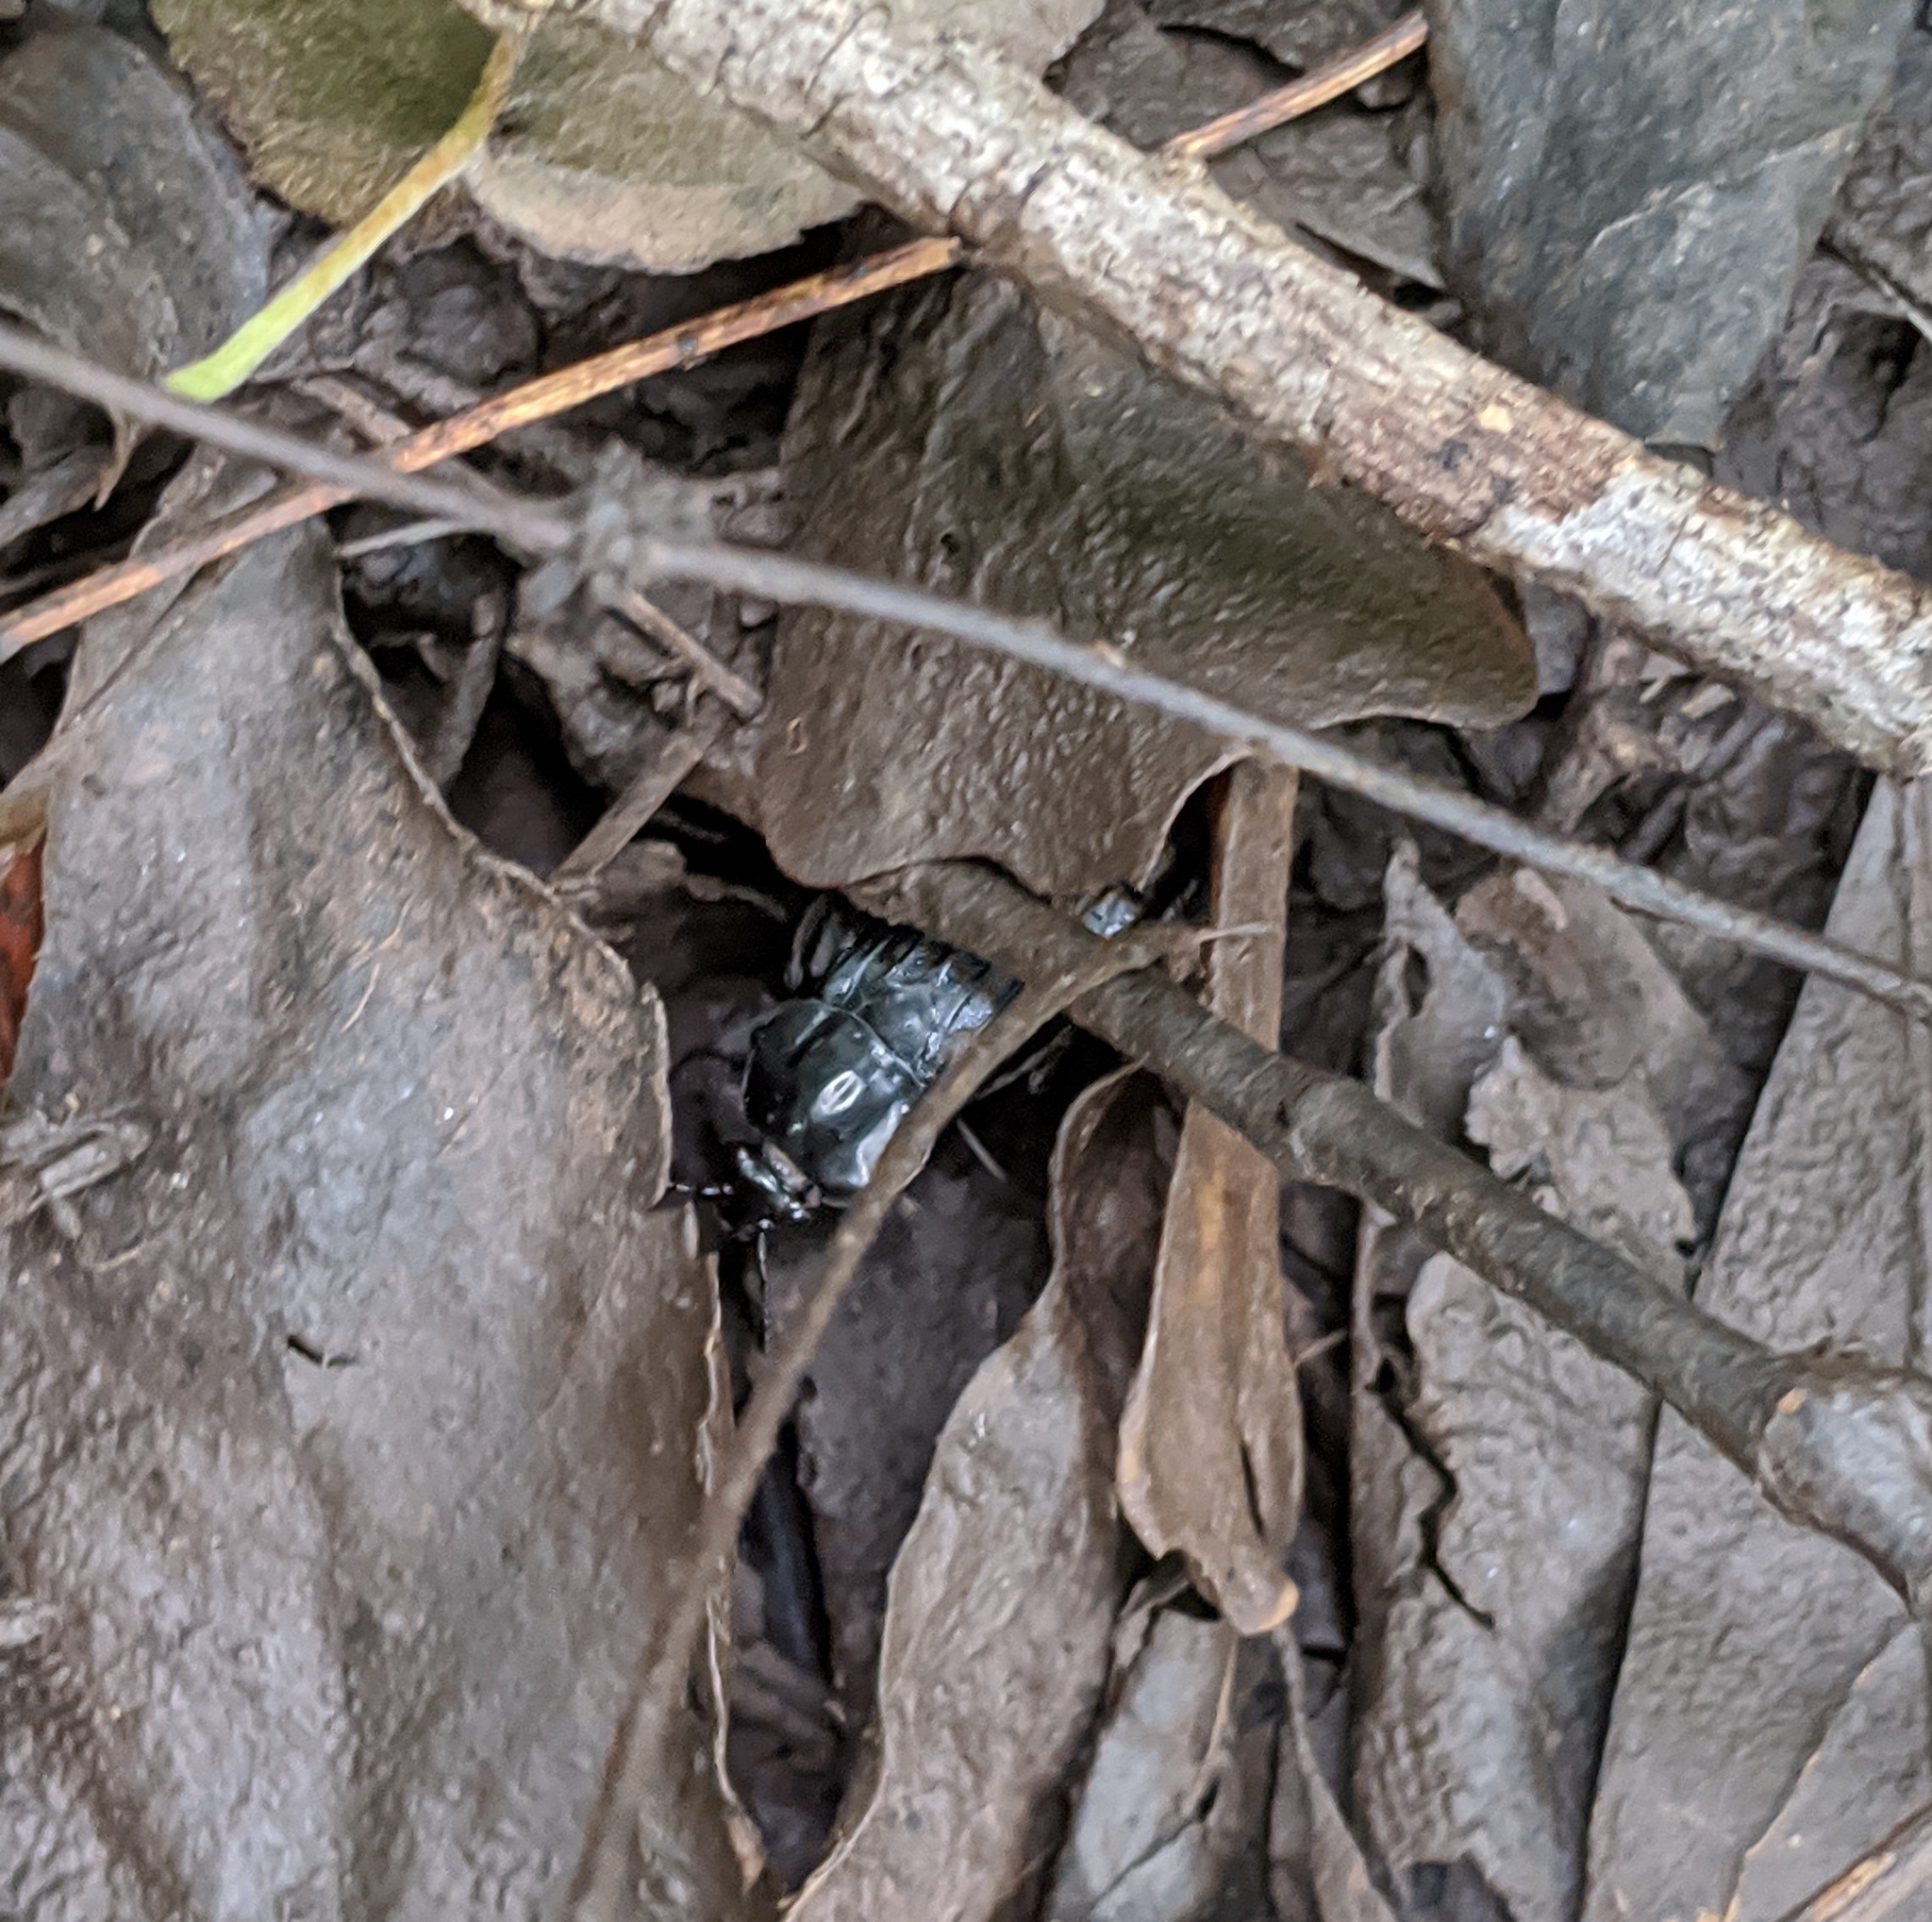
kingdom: Animalia
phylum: Arthropoda
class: Insecta
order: Coleoptera
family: Staphylinidae
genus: Necrodes
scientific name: Necrodes surinamensis
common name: Red-lined carrion beetle
